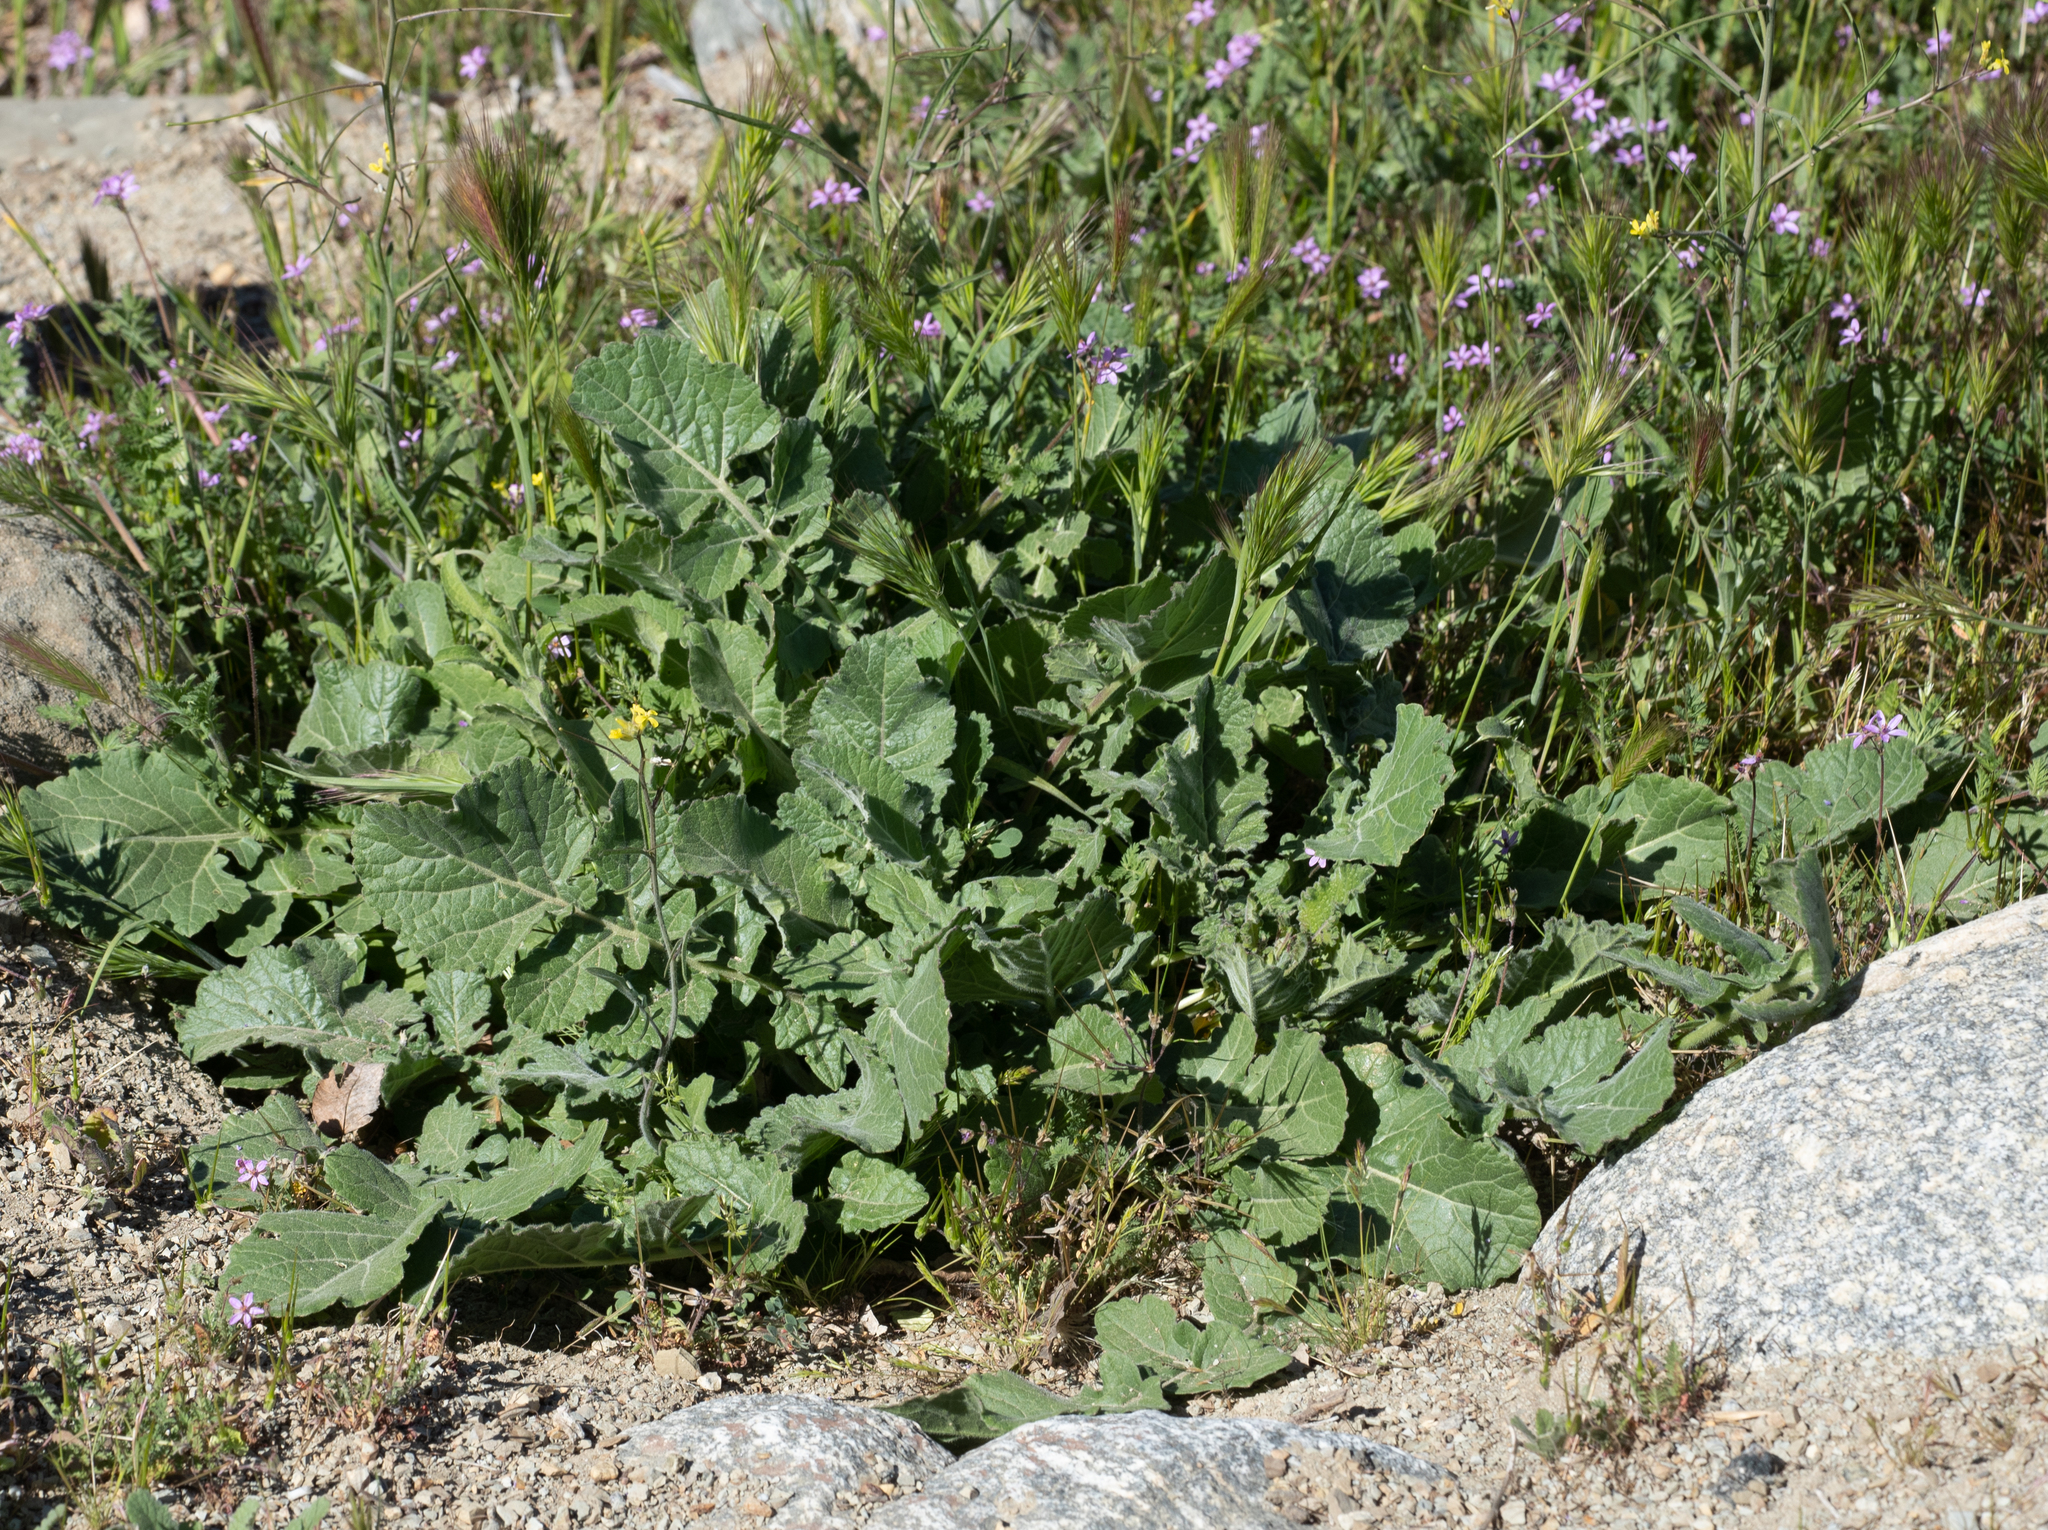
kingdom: Plantae
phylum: Tracheophyta
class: Magnoliopsida
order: Brassicales
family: Brassicaceae
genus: Hirschfeldia
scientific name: Hirschfeldia incana
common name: Hoary mustard
